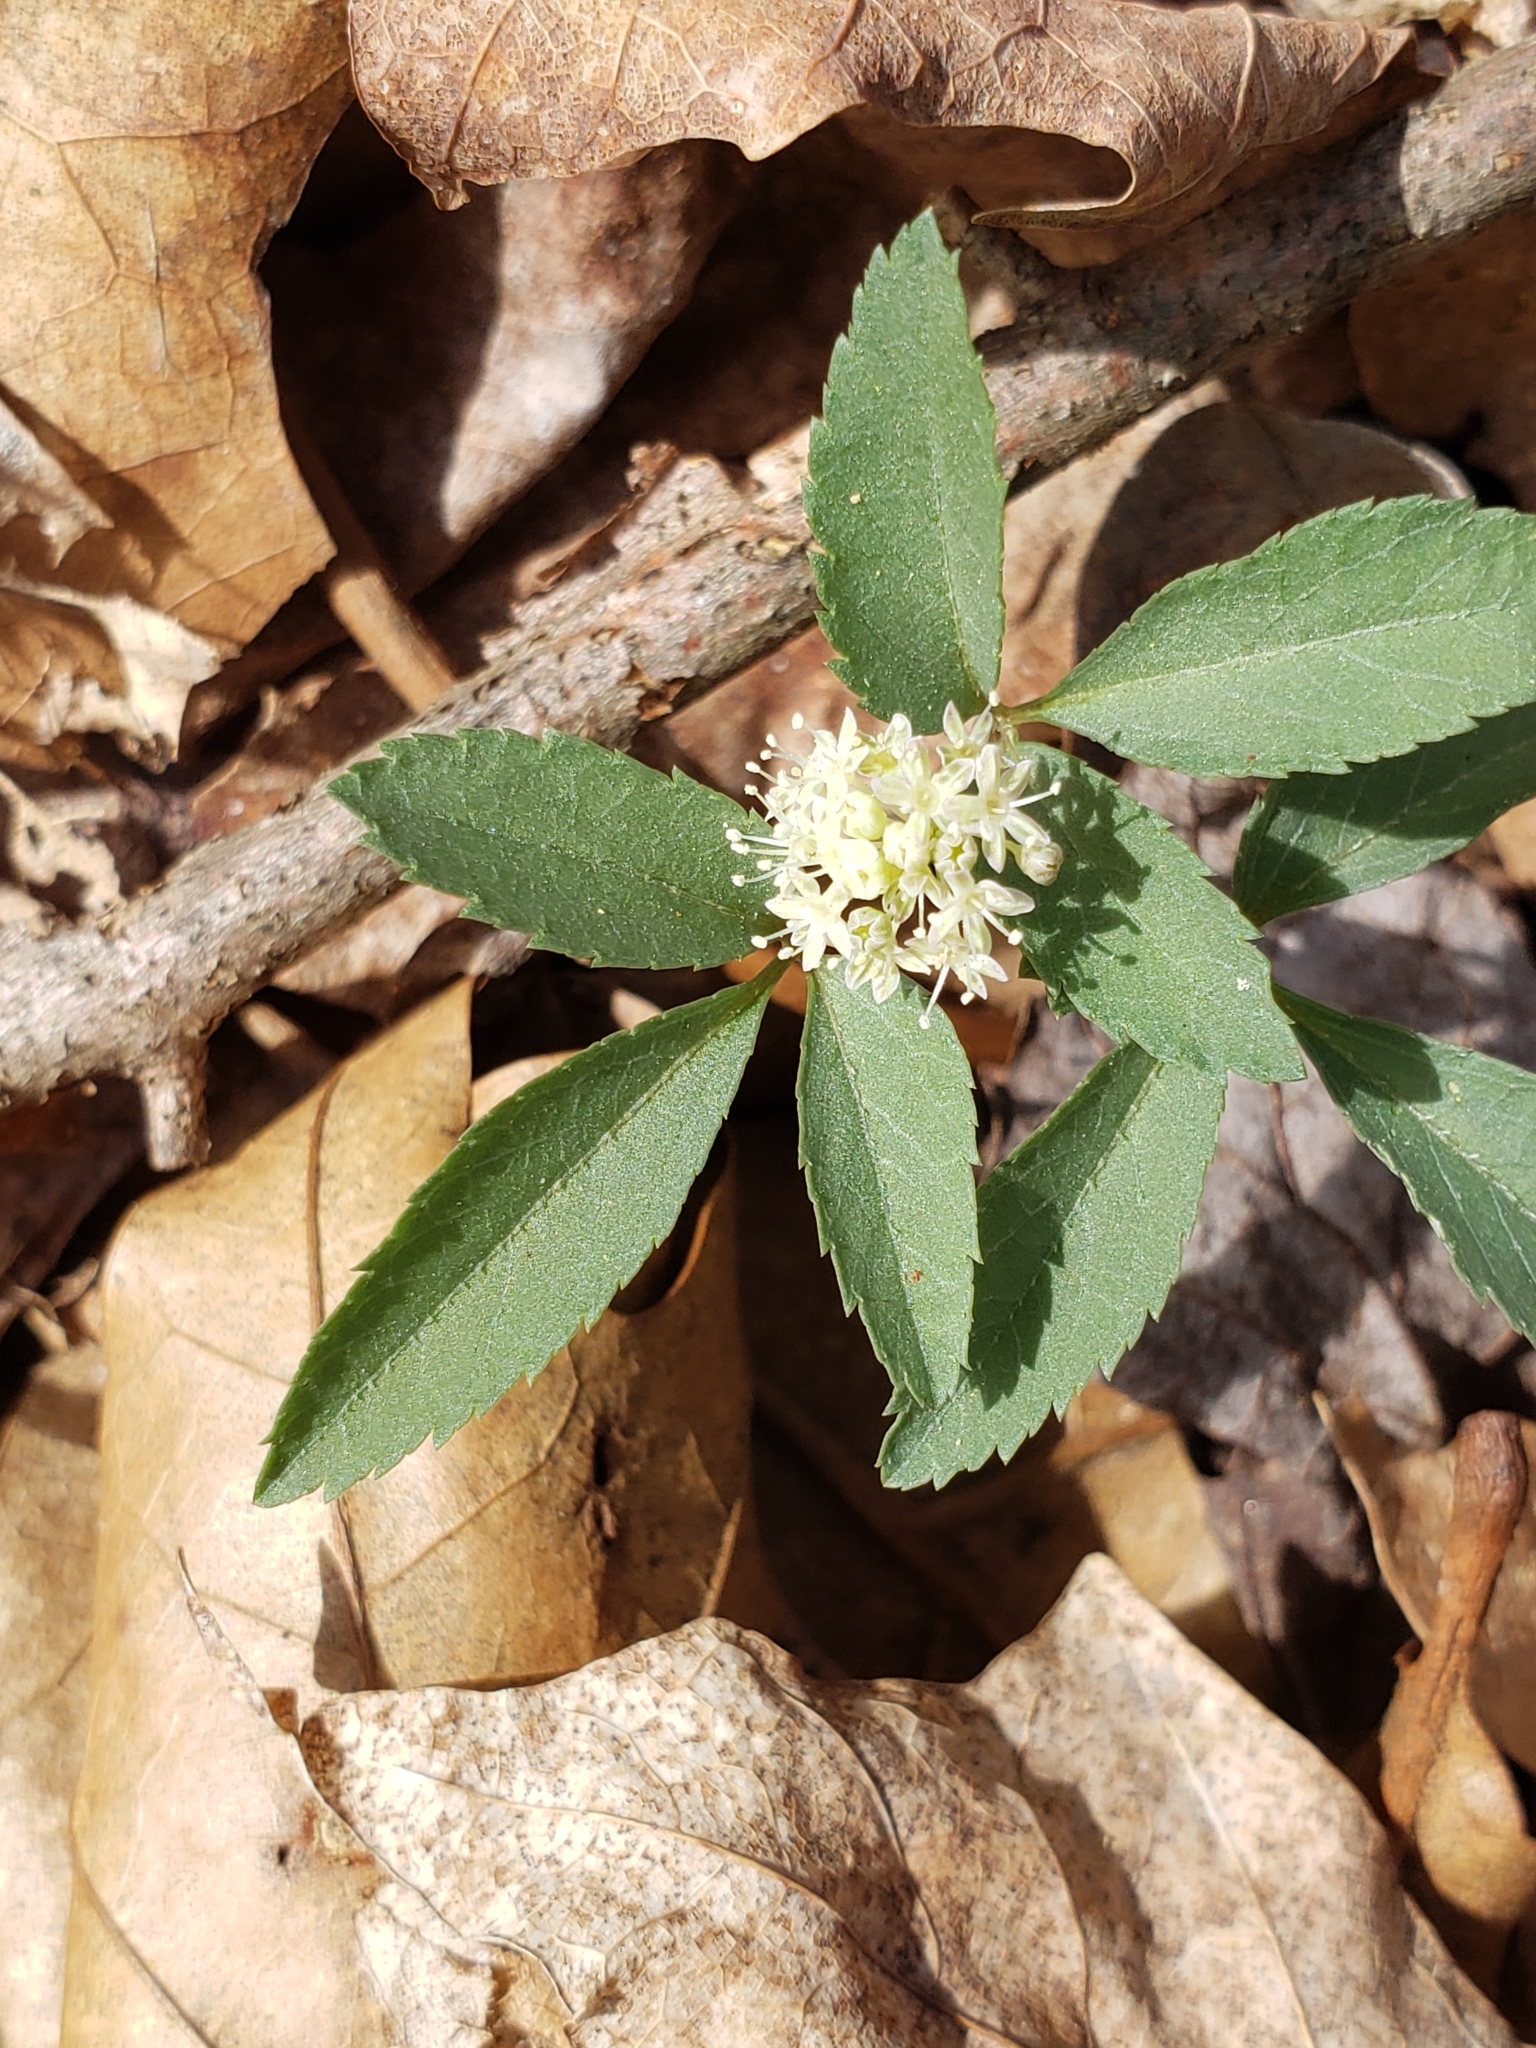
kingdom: Plantae
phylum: Tracheophyta
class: Magnoliopsida
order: Apiales
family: Araliaceae
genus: Panax
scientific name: Panax trifolius
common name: Dwarf ginseng
